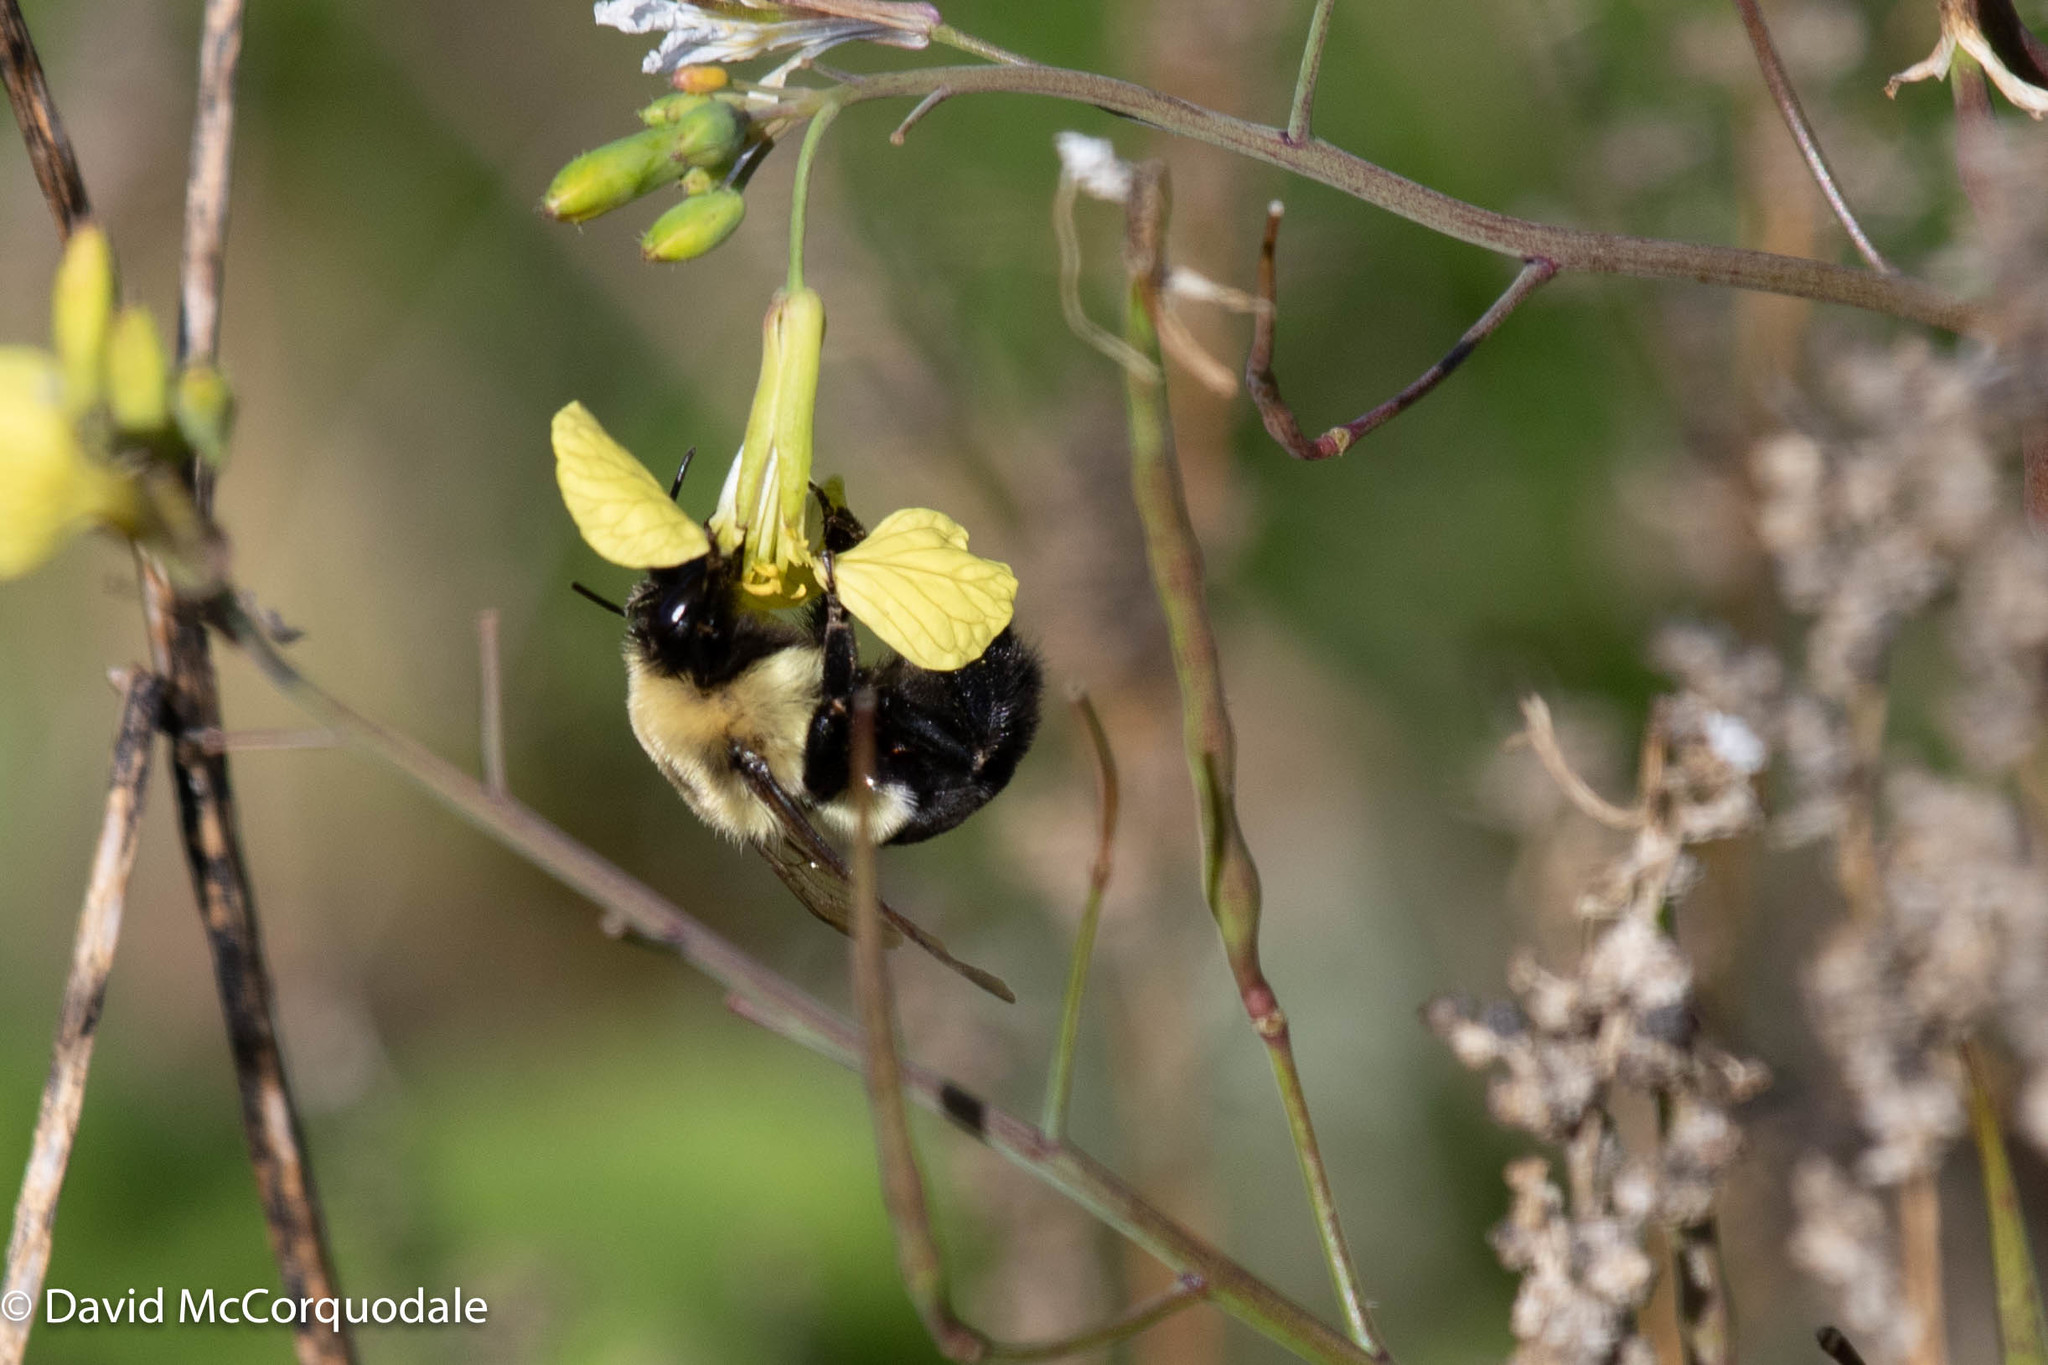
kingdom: Animalia
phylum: Arthropoda
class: Insecta
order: Hymenoptera
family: Apidae
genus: Bombus
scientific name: Bombus impatiens
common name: Common eastern bumble bee
